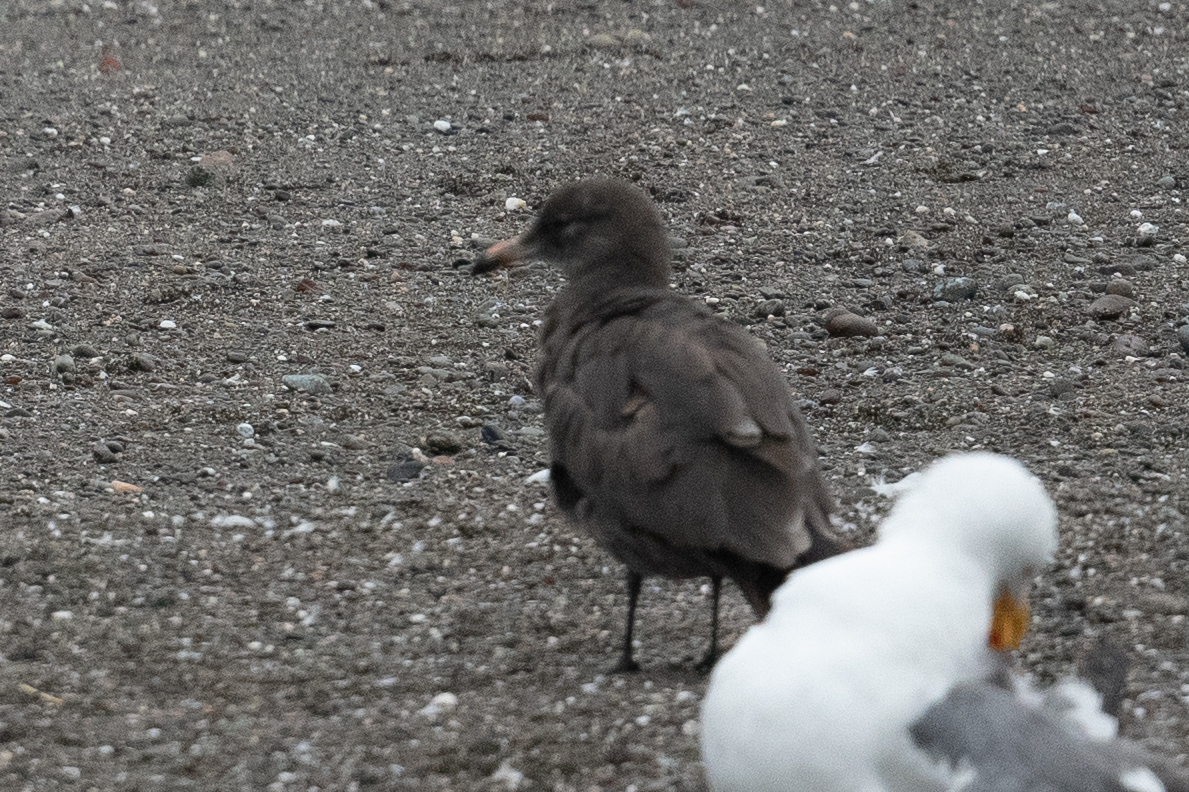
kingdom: Animalia
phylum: Chordata
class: Aves
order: Charadriiformes
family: Laridae
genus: Larus
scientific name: Larus heermanni
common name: Heermann's gull
